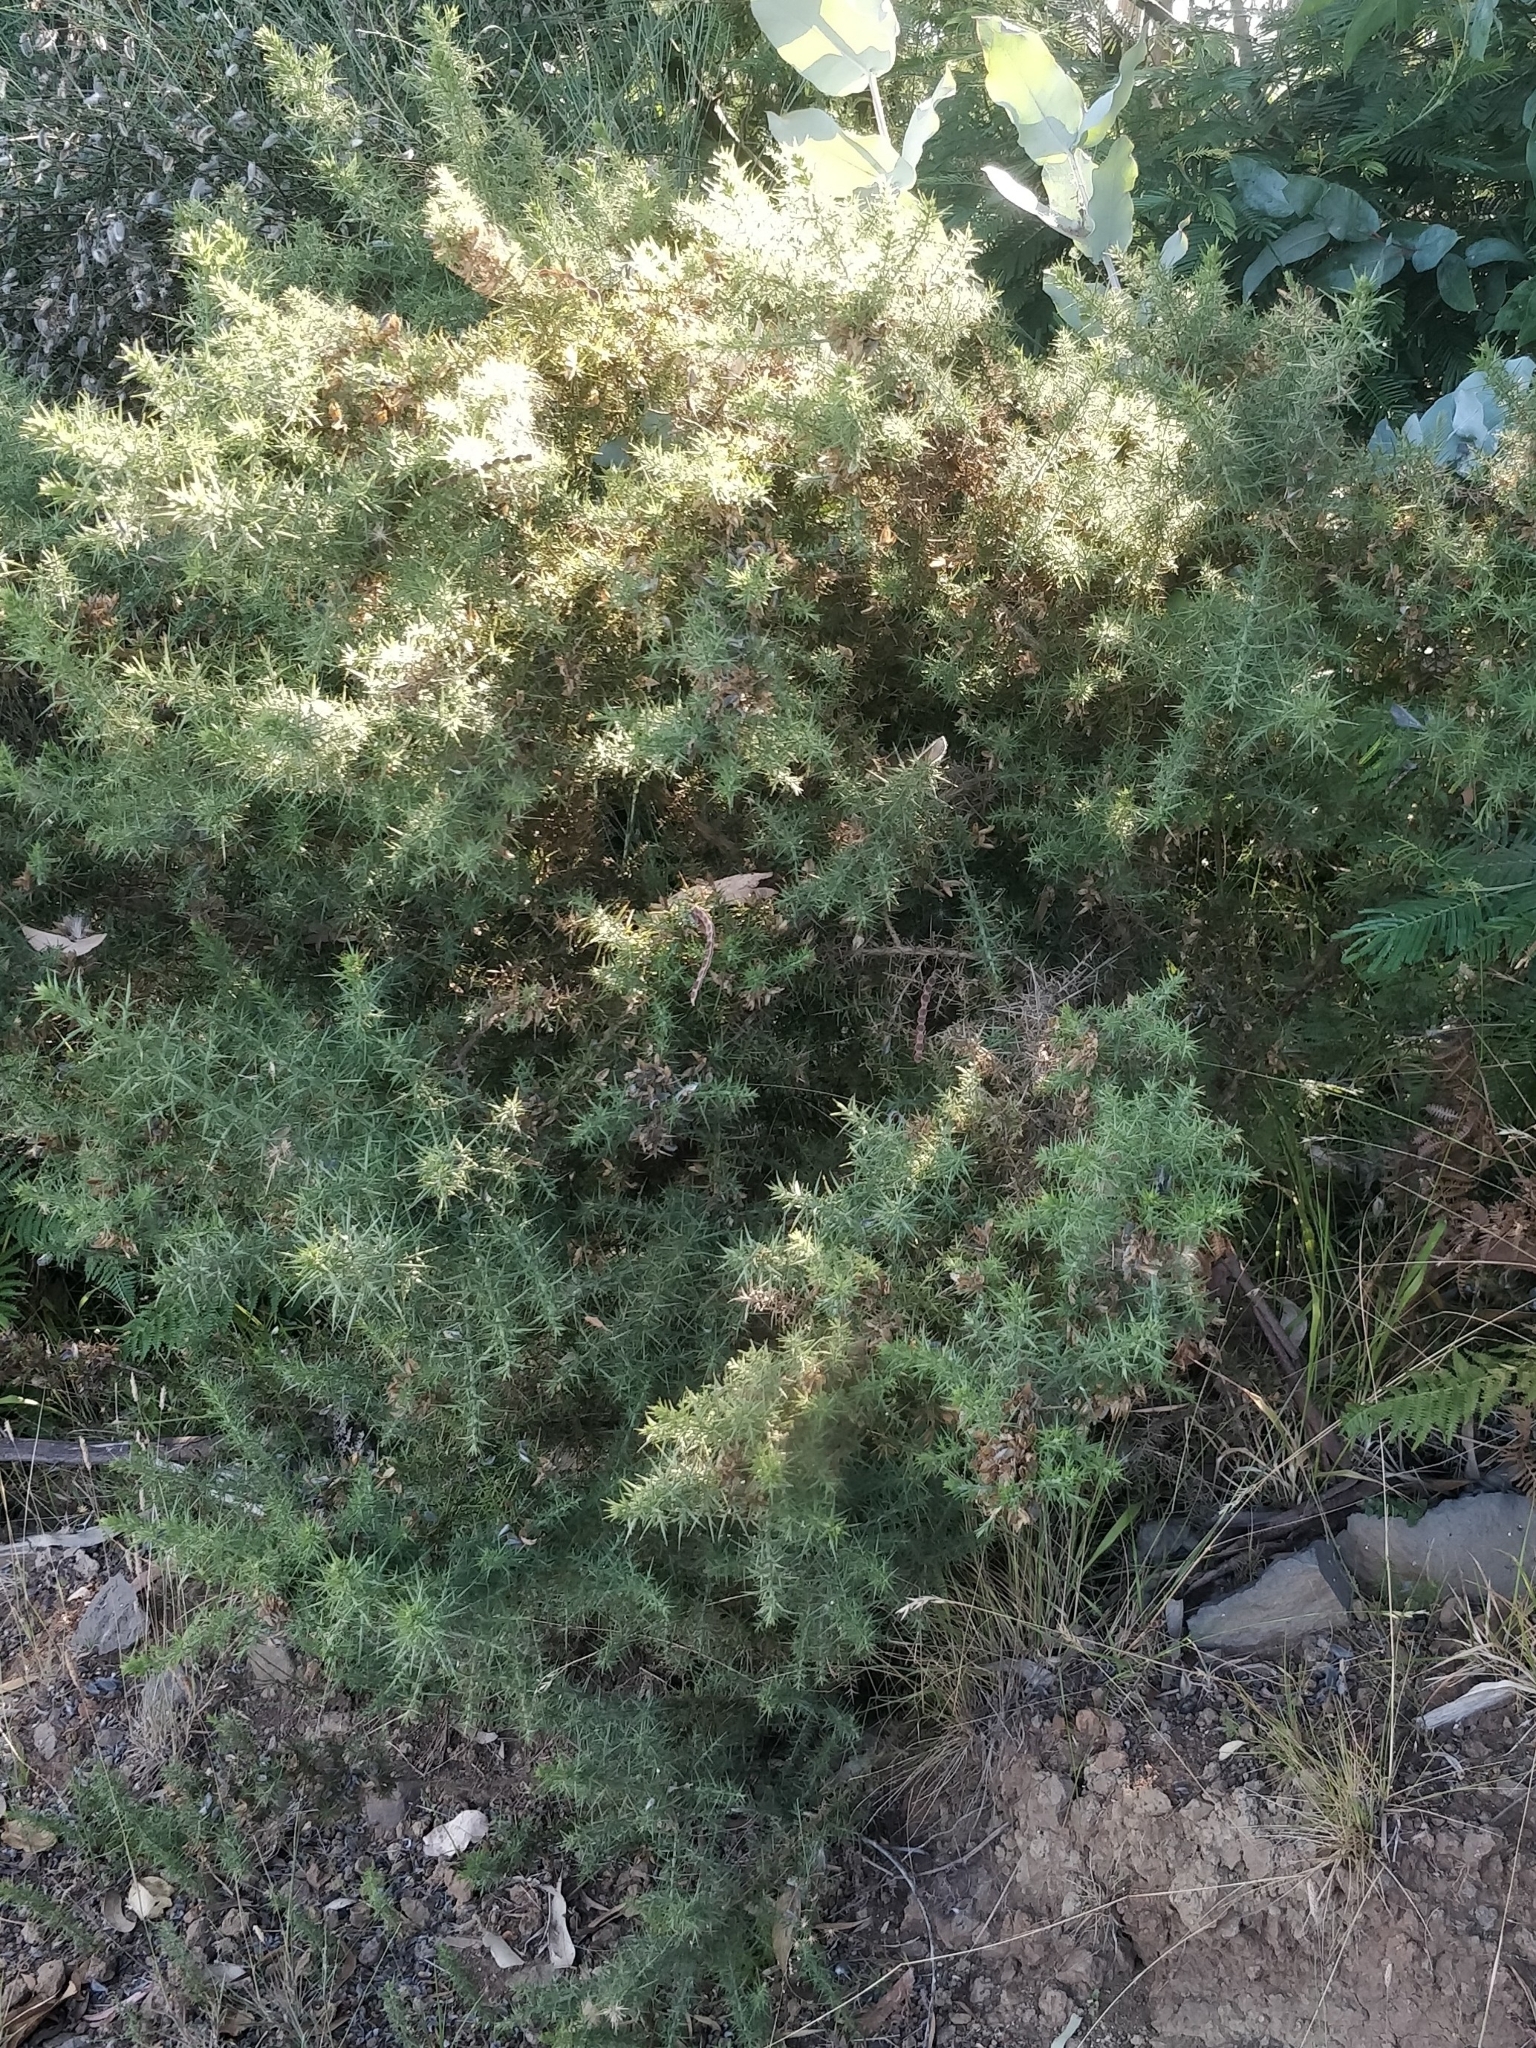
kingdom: Plantae
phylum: Tracheophyta
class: Magnoliopsida
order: Fabales
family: Fabaceae
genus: Ulex
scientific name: Ulex europaeus
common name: Common gorse
